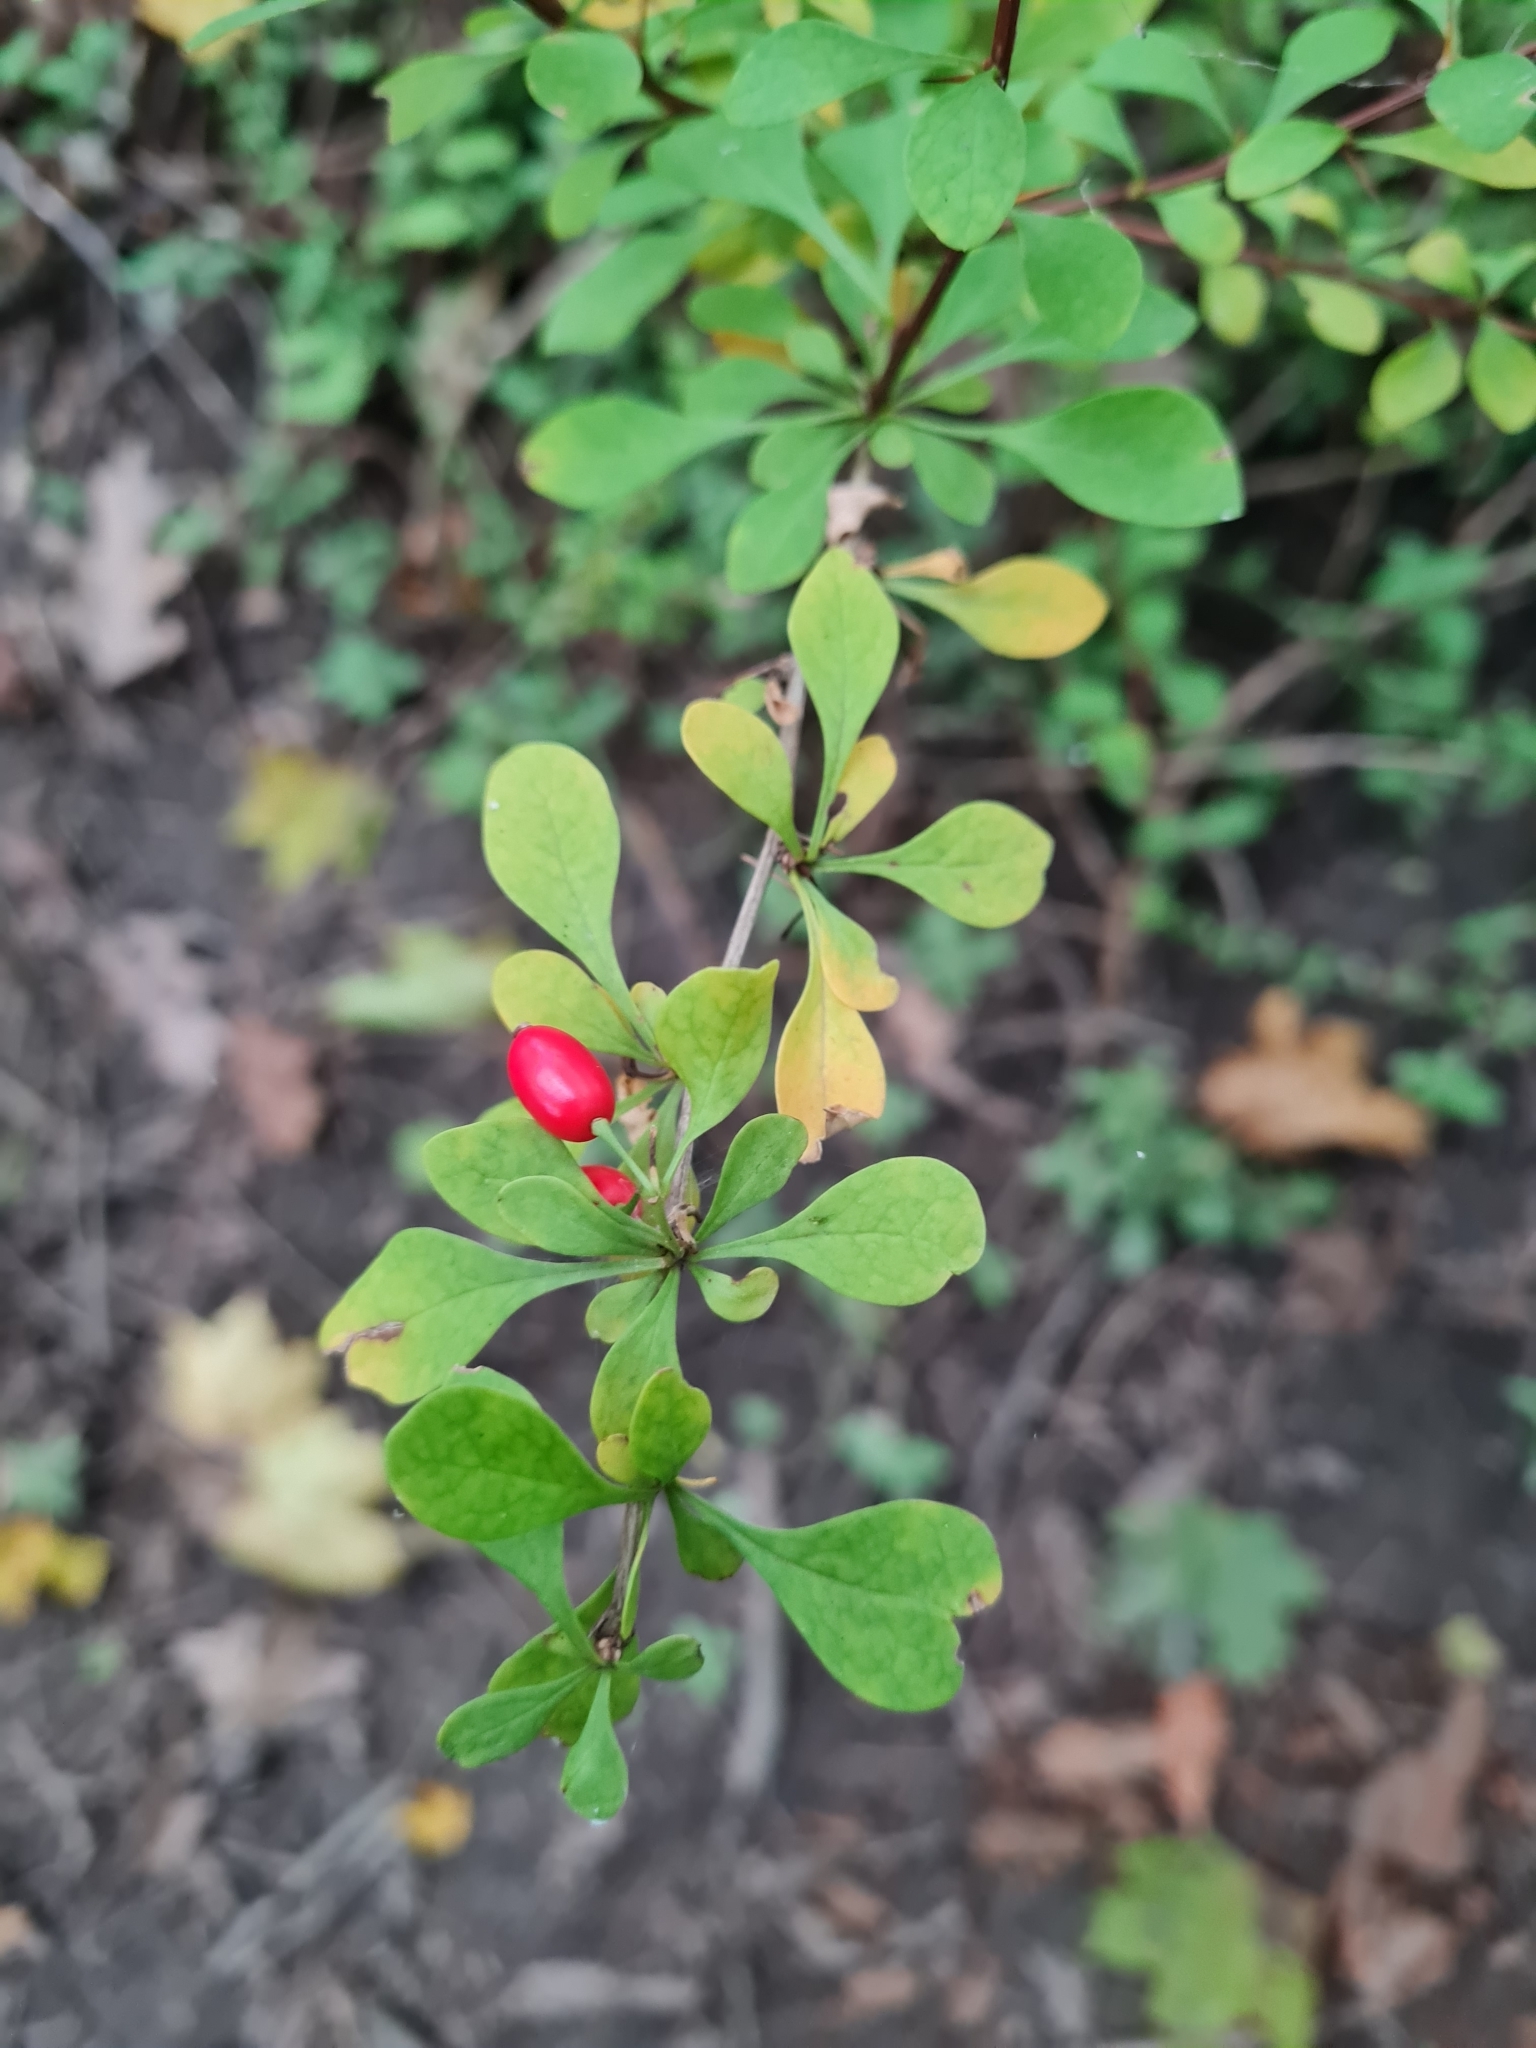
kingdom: Plantae
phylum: Tracheophyta
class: Magnoliopsida
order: Ranunculales
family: Berberidaceae
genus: Berberis
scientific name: Berberis thunbergii
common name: Japanese barberry
